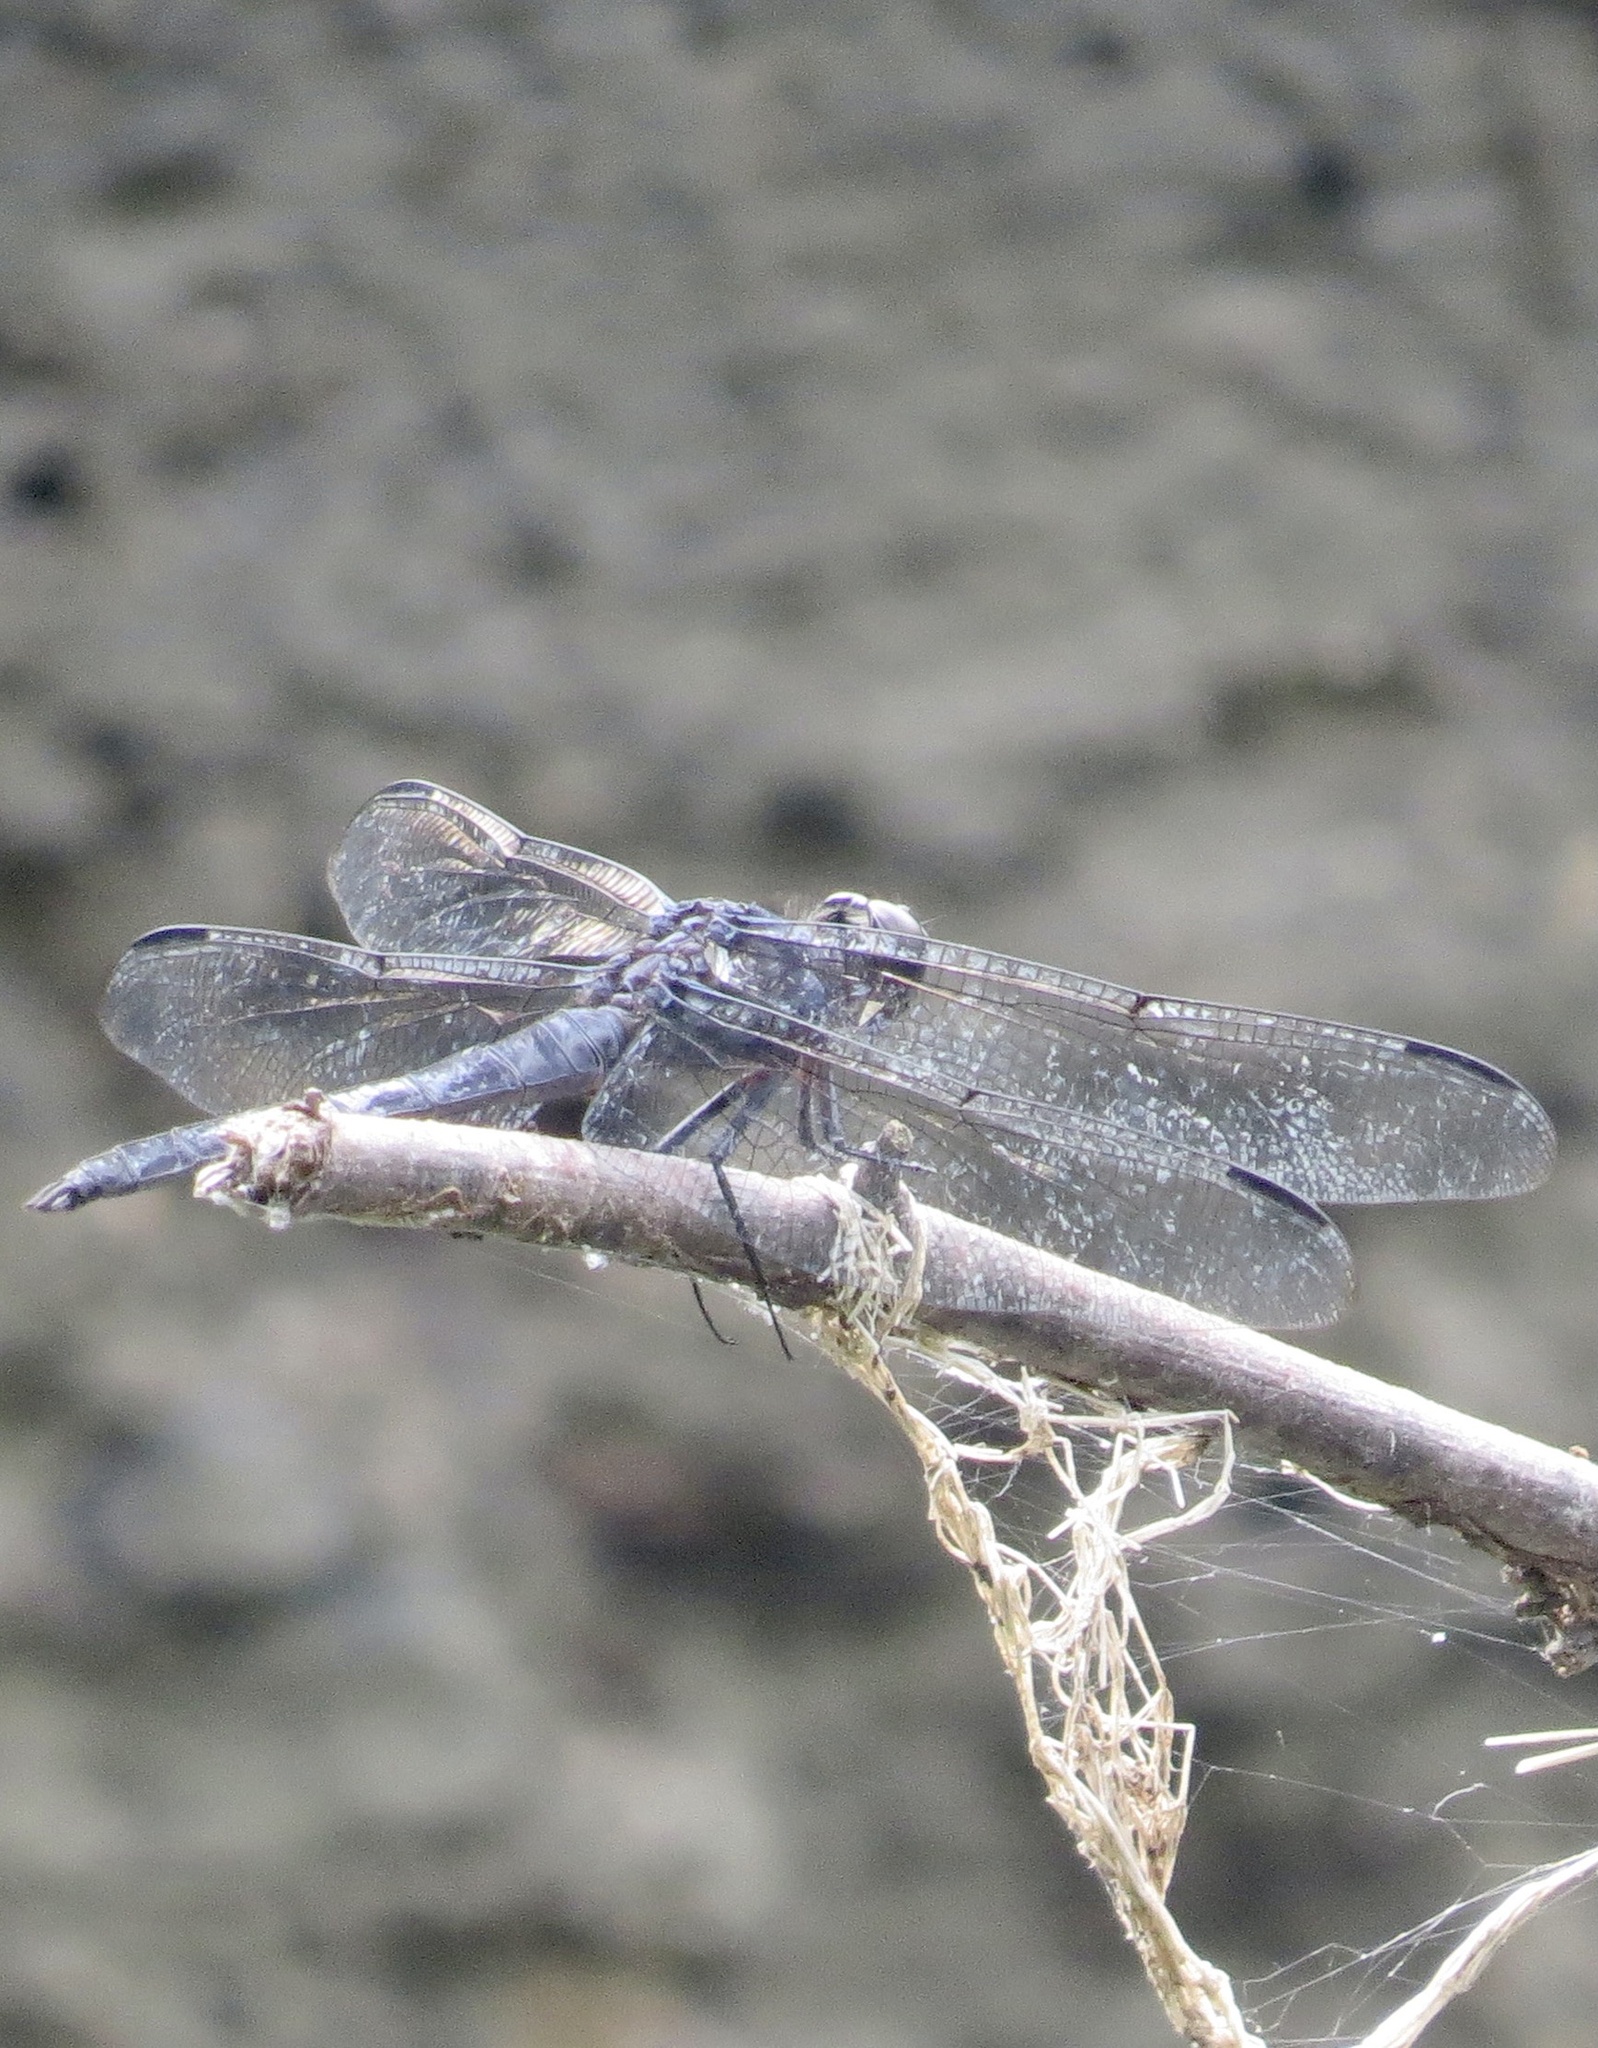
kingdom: Animalia
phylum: Arthropoda
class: Insecta
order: Odonata
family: Libellulidae
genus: Libellula
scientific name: Libellula incesta
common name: Slaty skimmer
